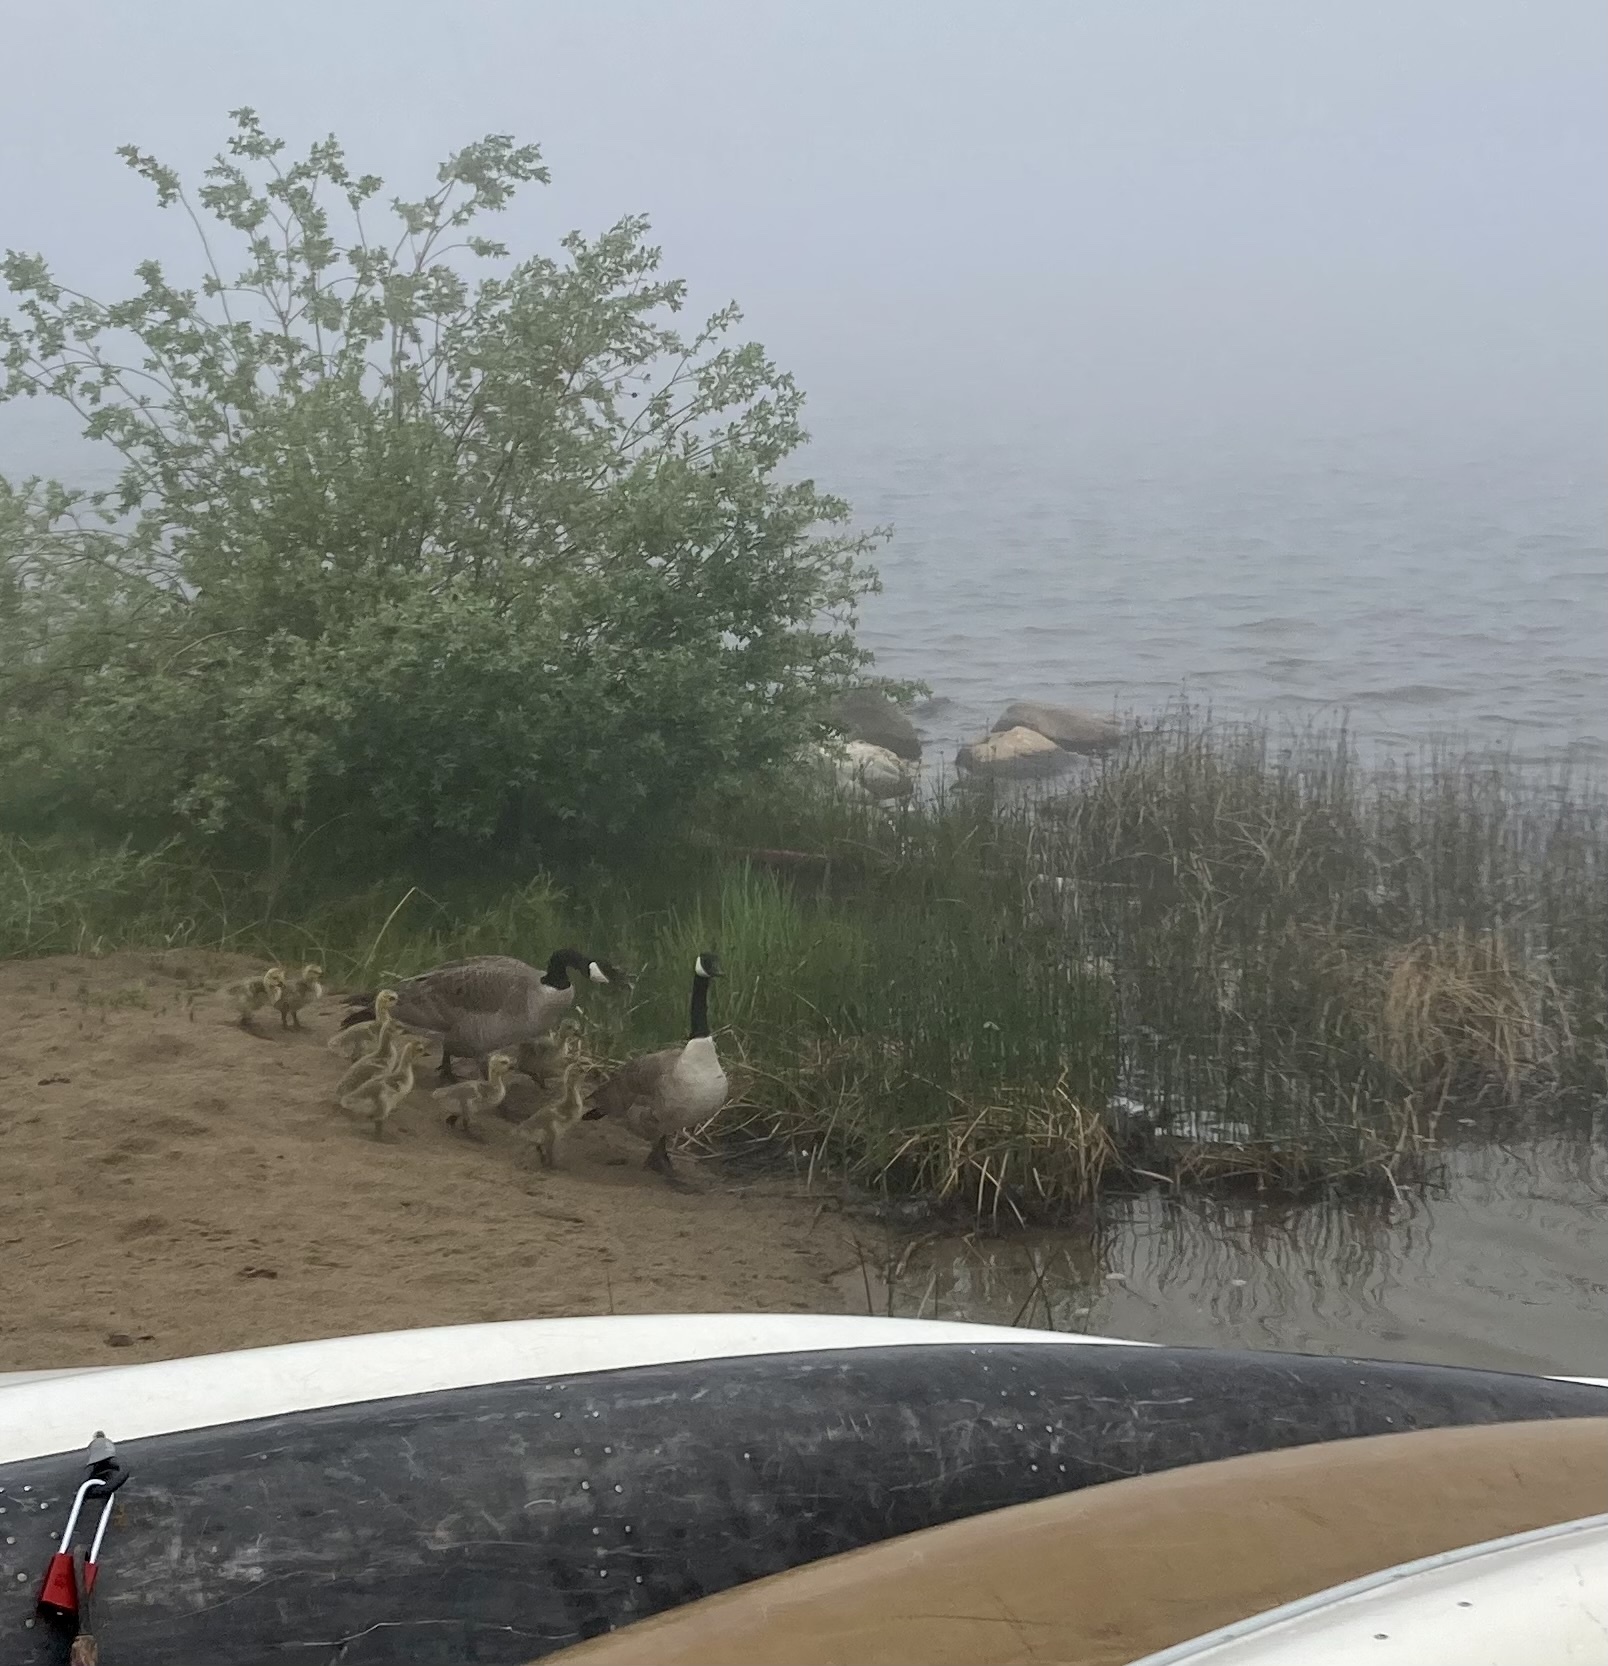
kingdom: Animalia
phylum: Chordata
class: Aves
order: Anseriformes
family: Anatidae
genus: Branta
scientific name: Branta canadensis
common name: Canada goose
